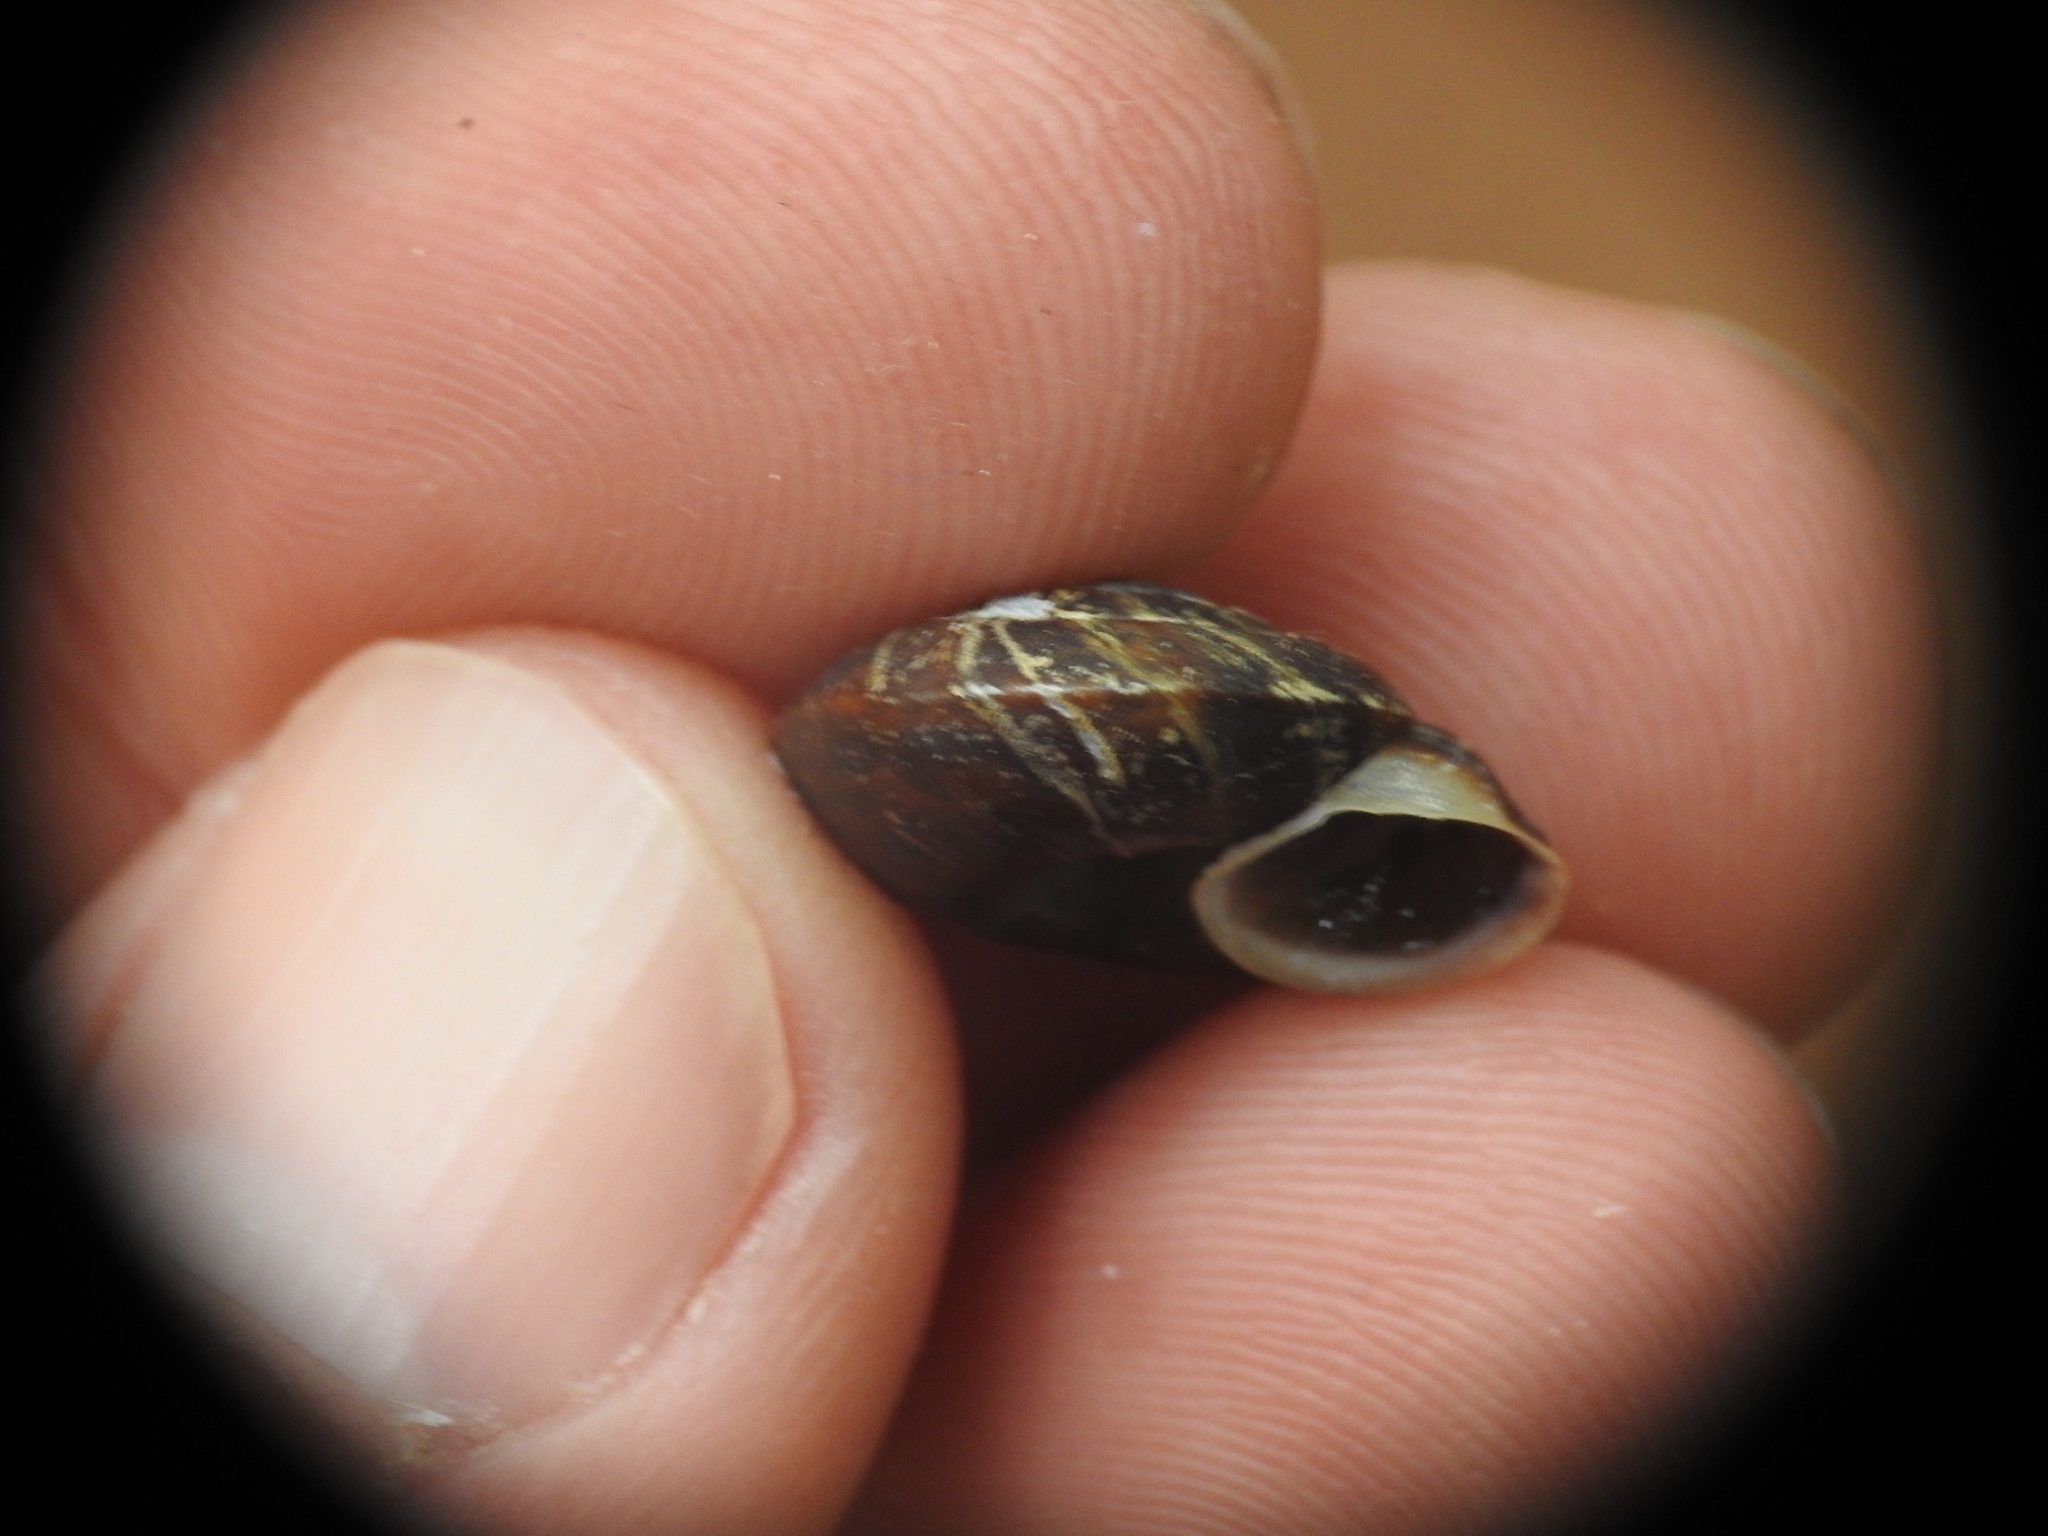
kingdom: Animalia
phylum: Mollusca
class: Gastropoda
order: Stylommatophora
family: Helicidae
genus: Helicigona
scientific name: Helicigona lapicida
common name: Lapidary snail
